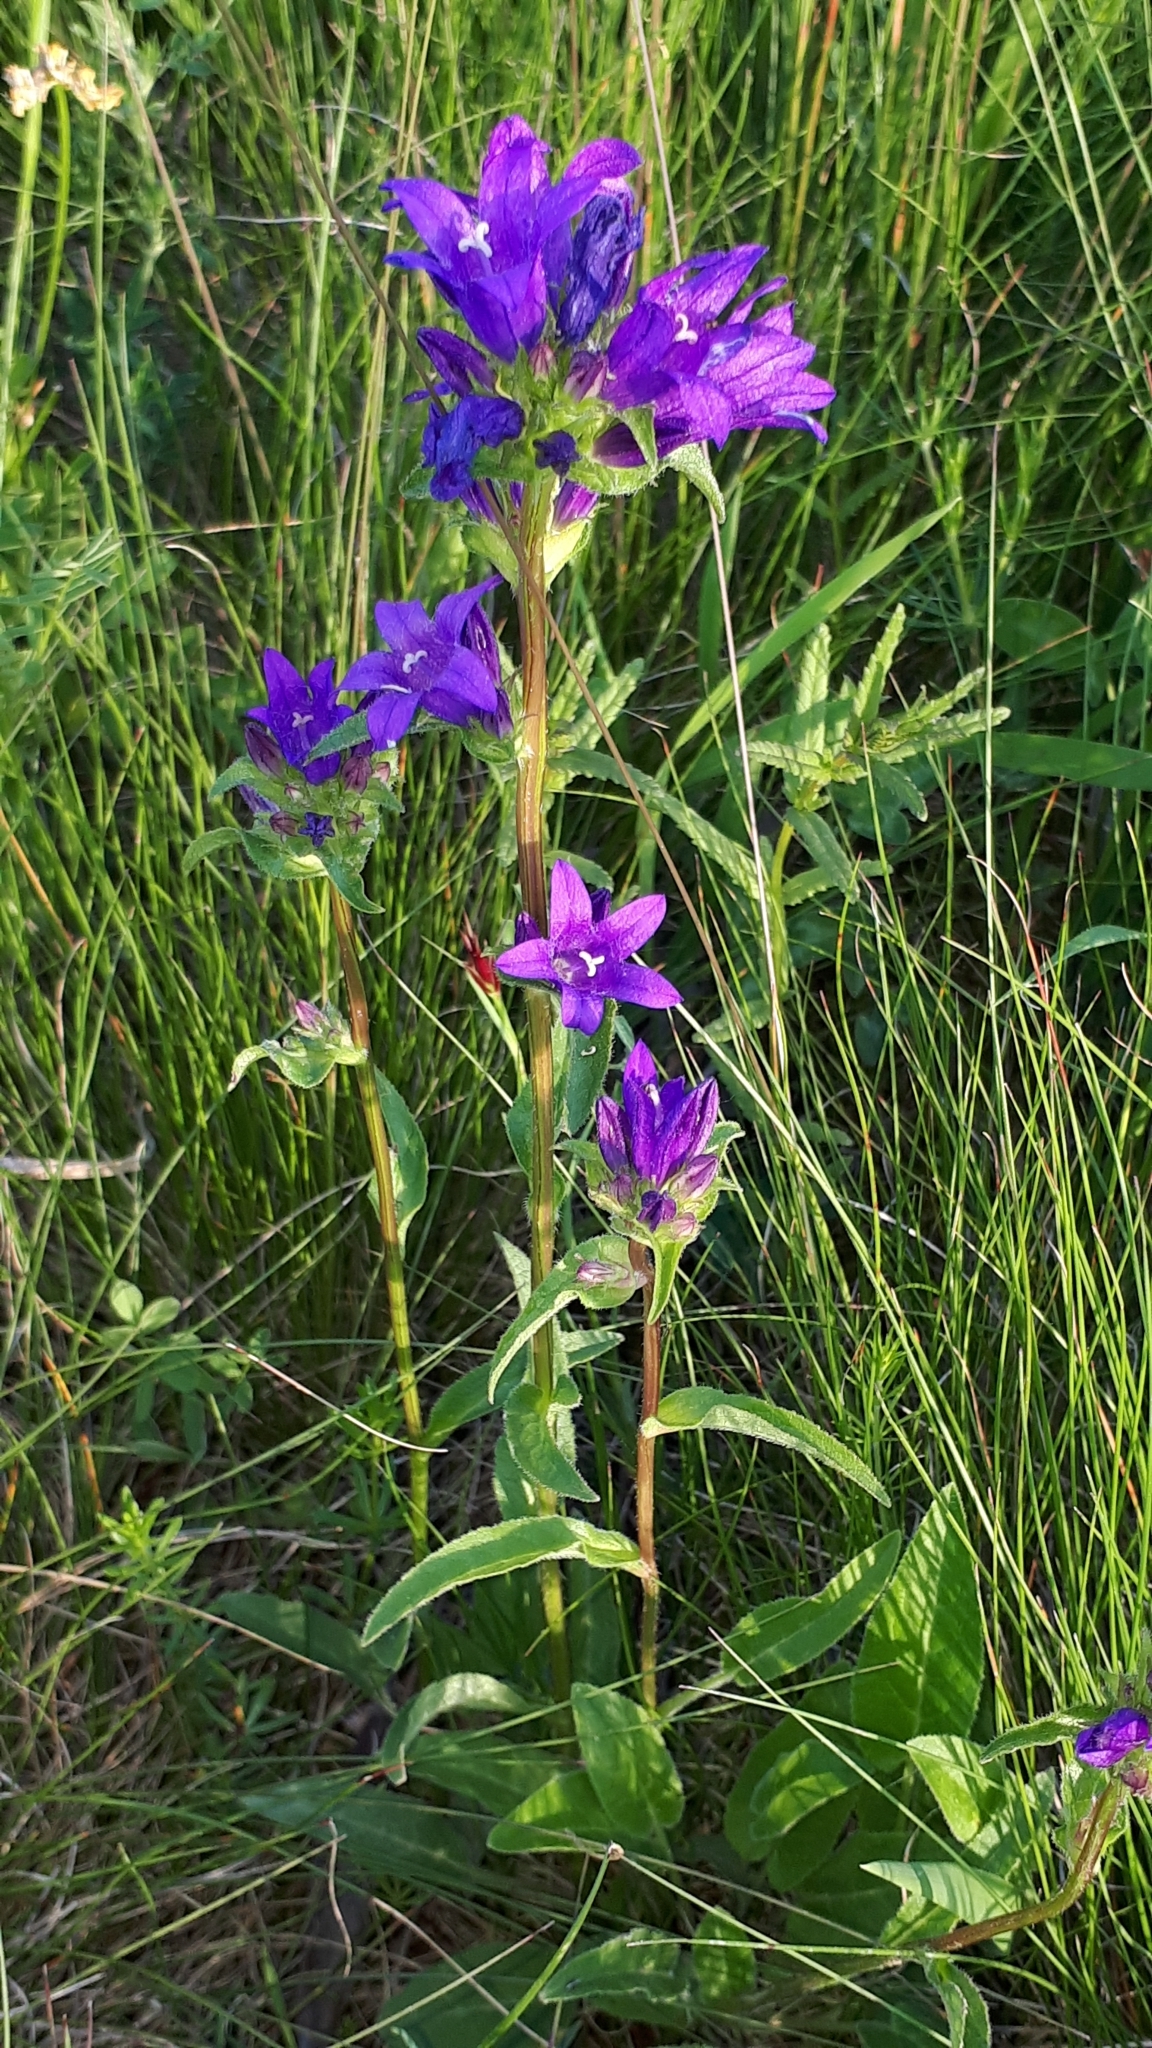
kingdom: Plantae
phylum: Tracheophyta
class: Magnoliopsida
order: Asterales
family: Campanulaceae
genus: Campanula
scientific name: Campanula glomerata
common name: Clustered bellflower
